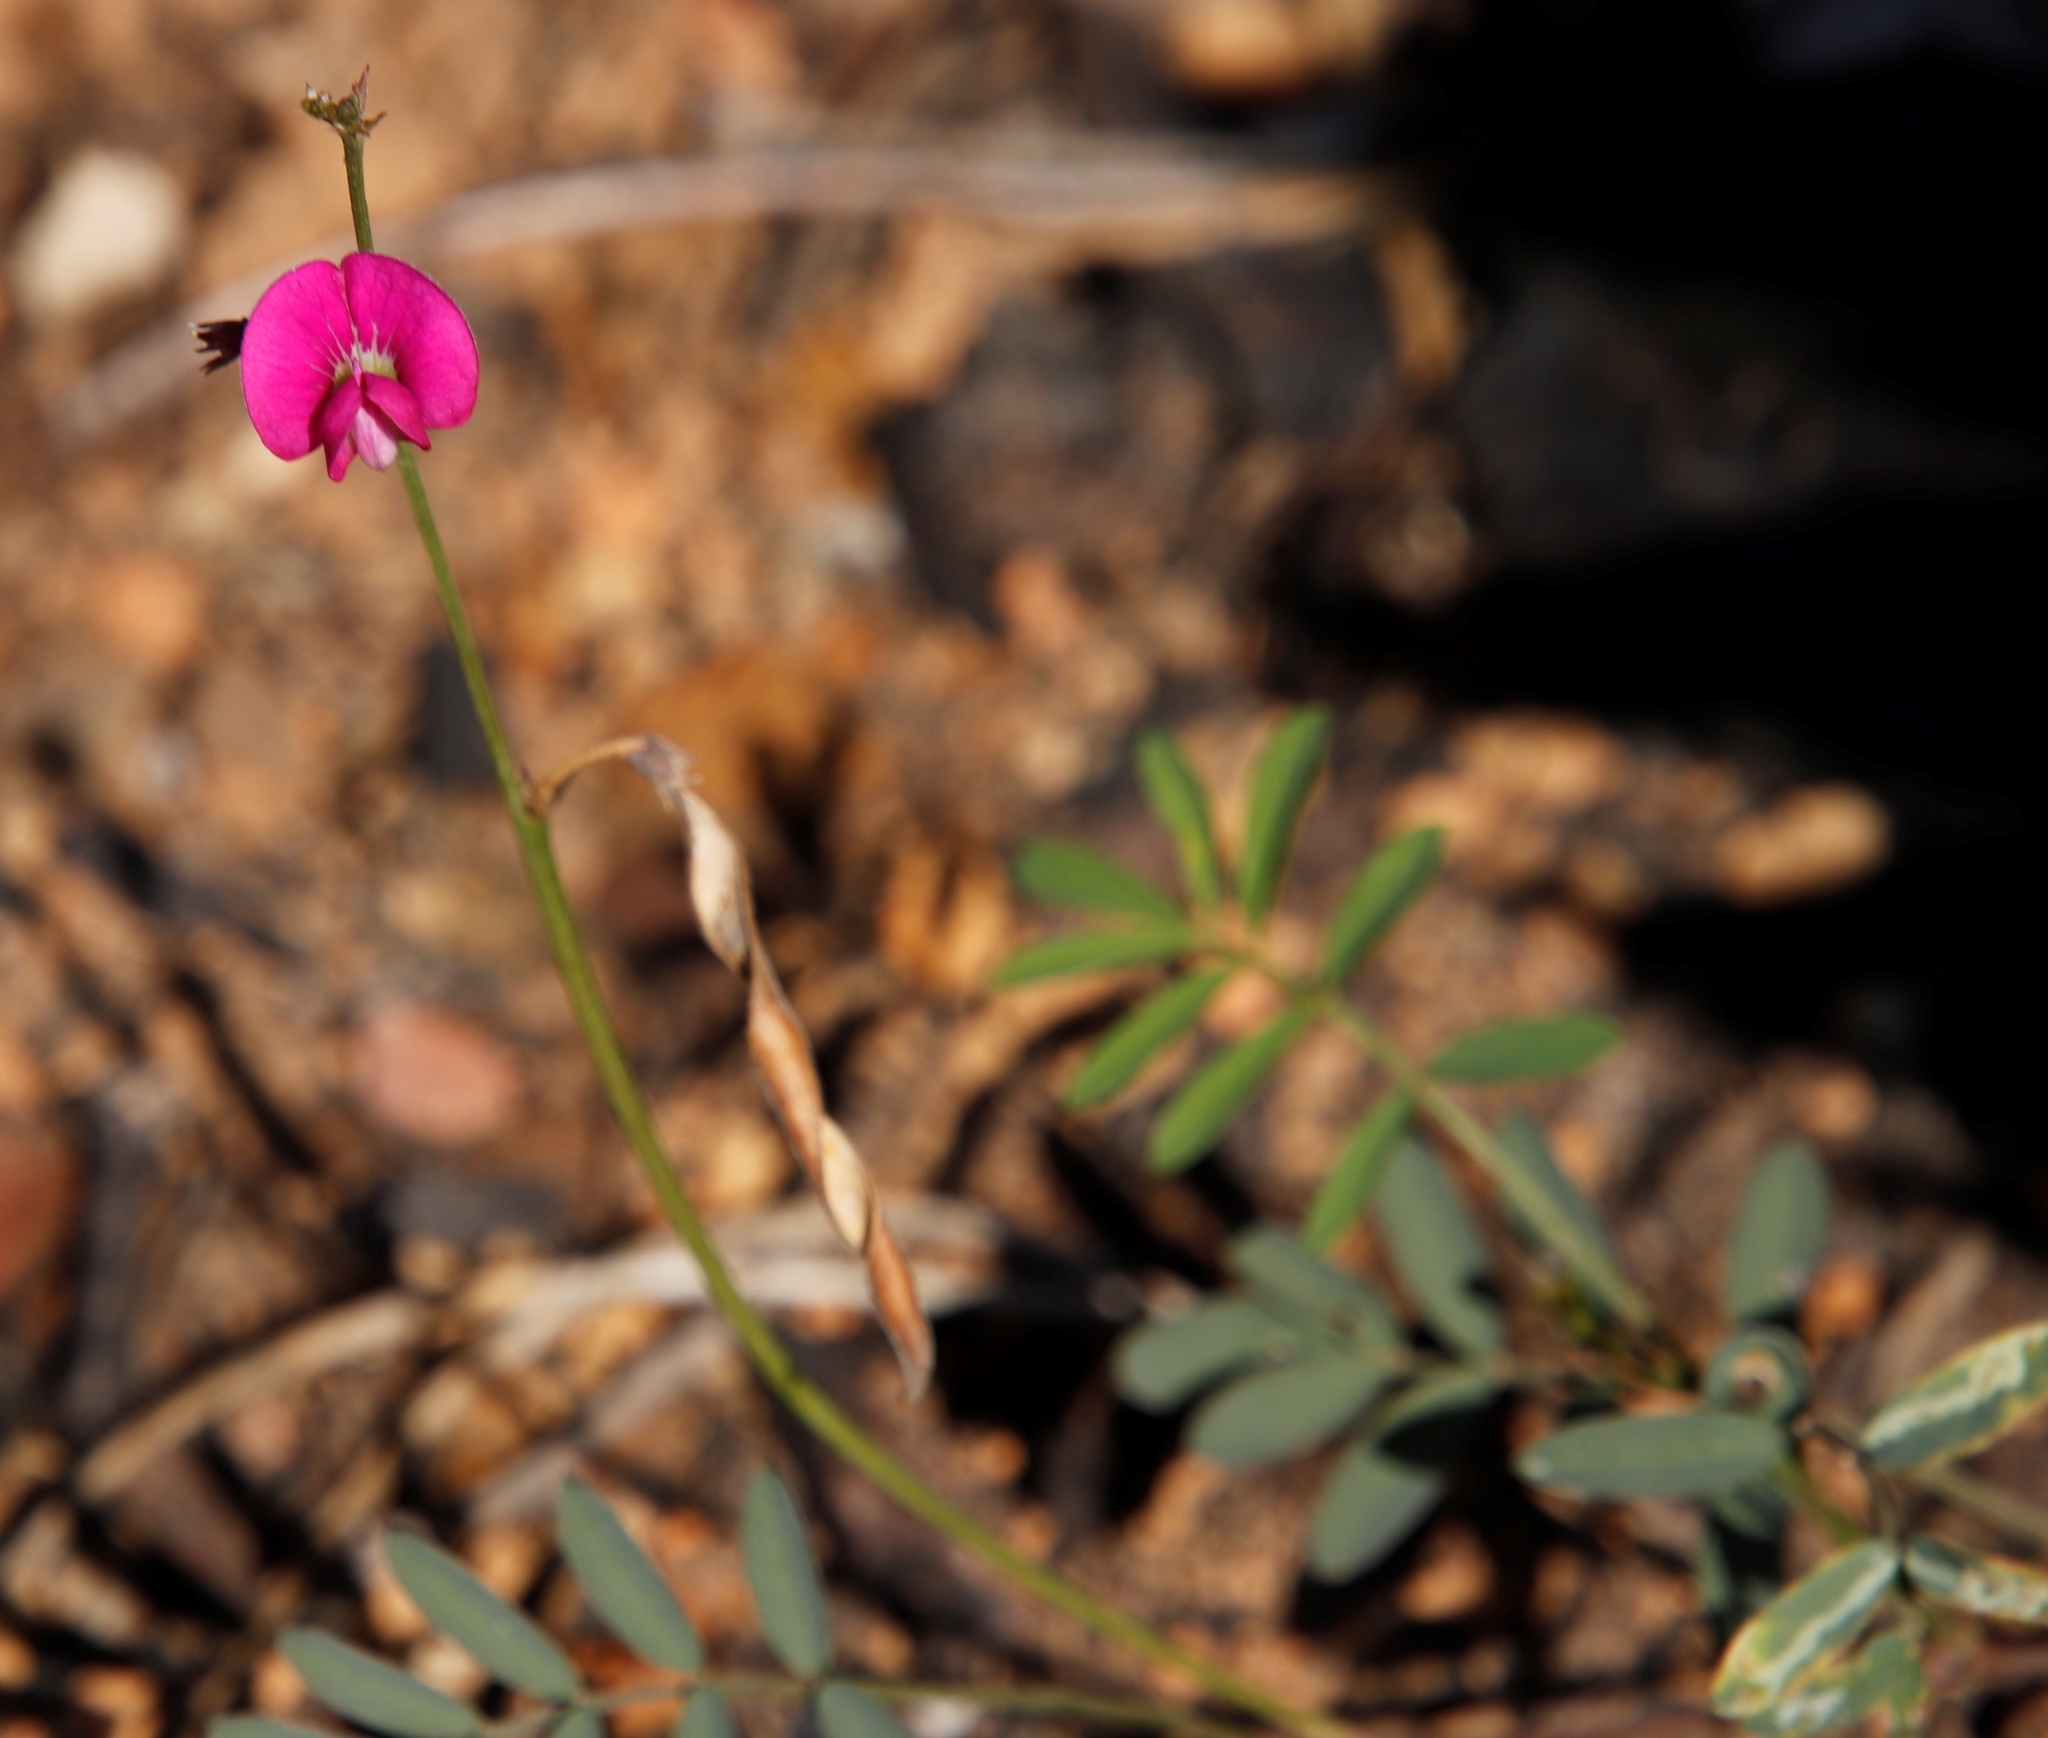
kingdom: Plantae
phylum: Tracheophyta
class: Magnoliopsida
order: Fabales
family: Fabaceae
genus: Tephrosia
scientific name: Tephrosia capensis
